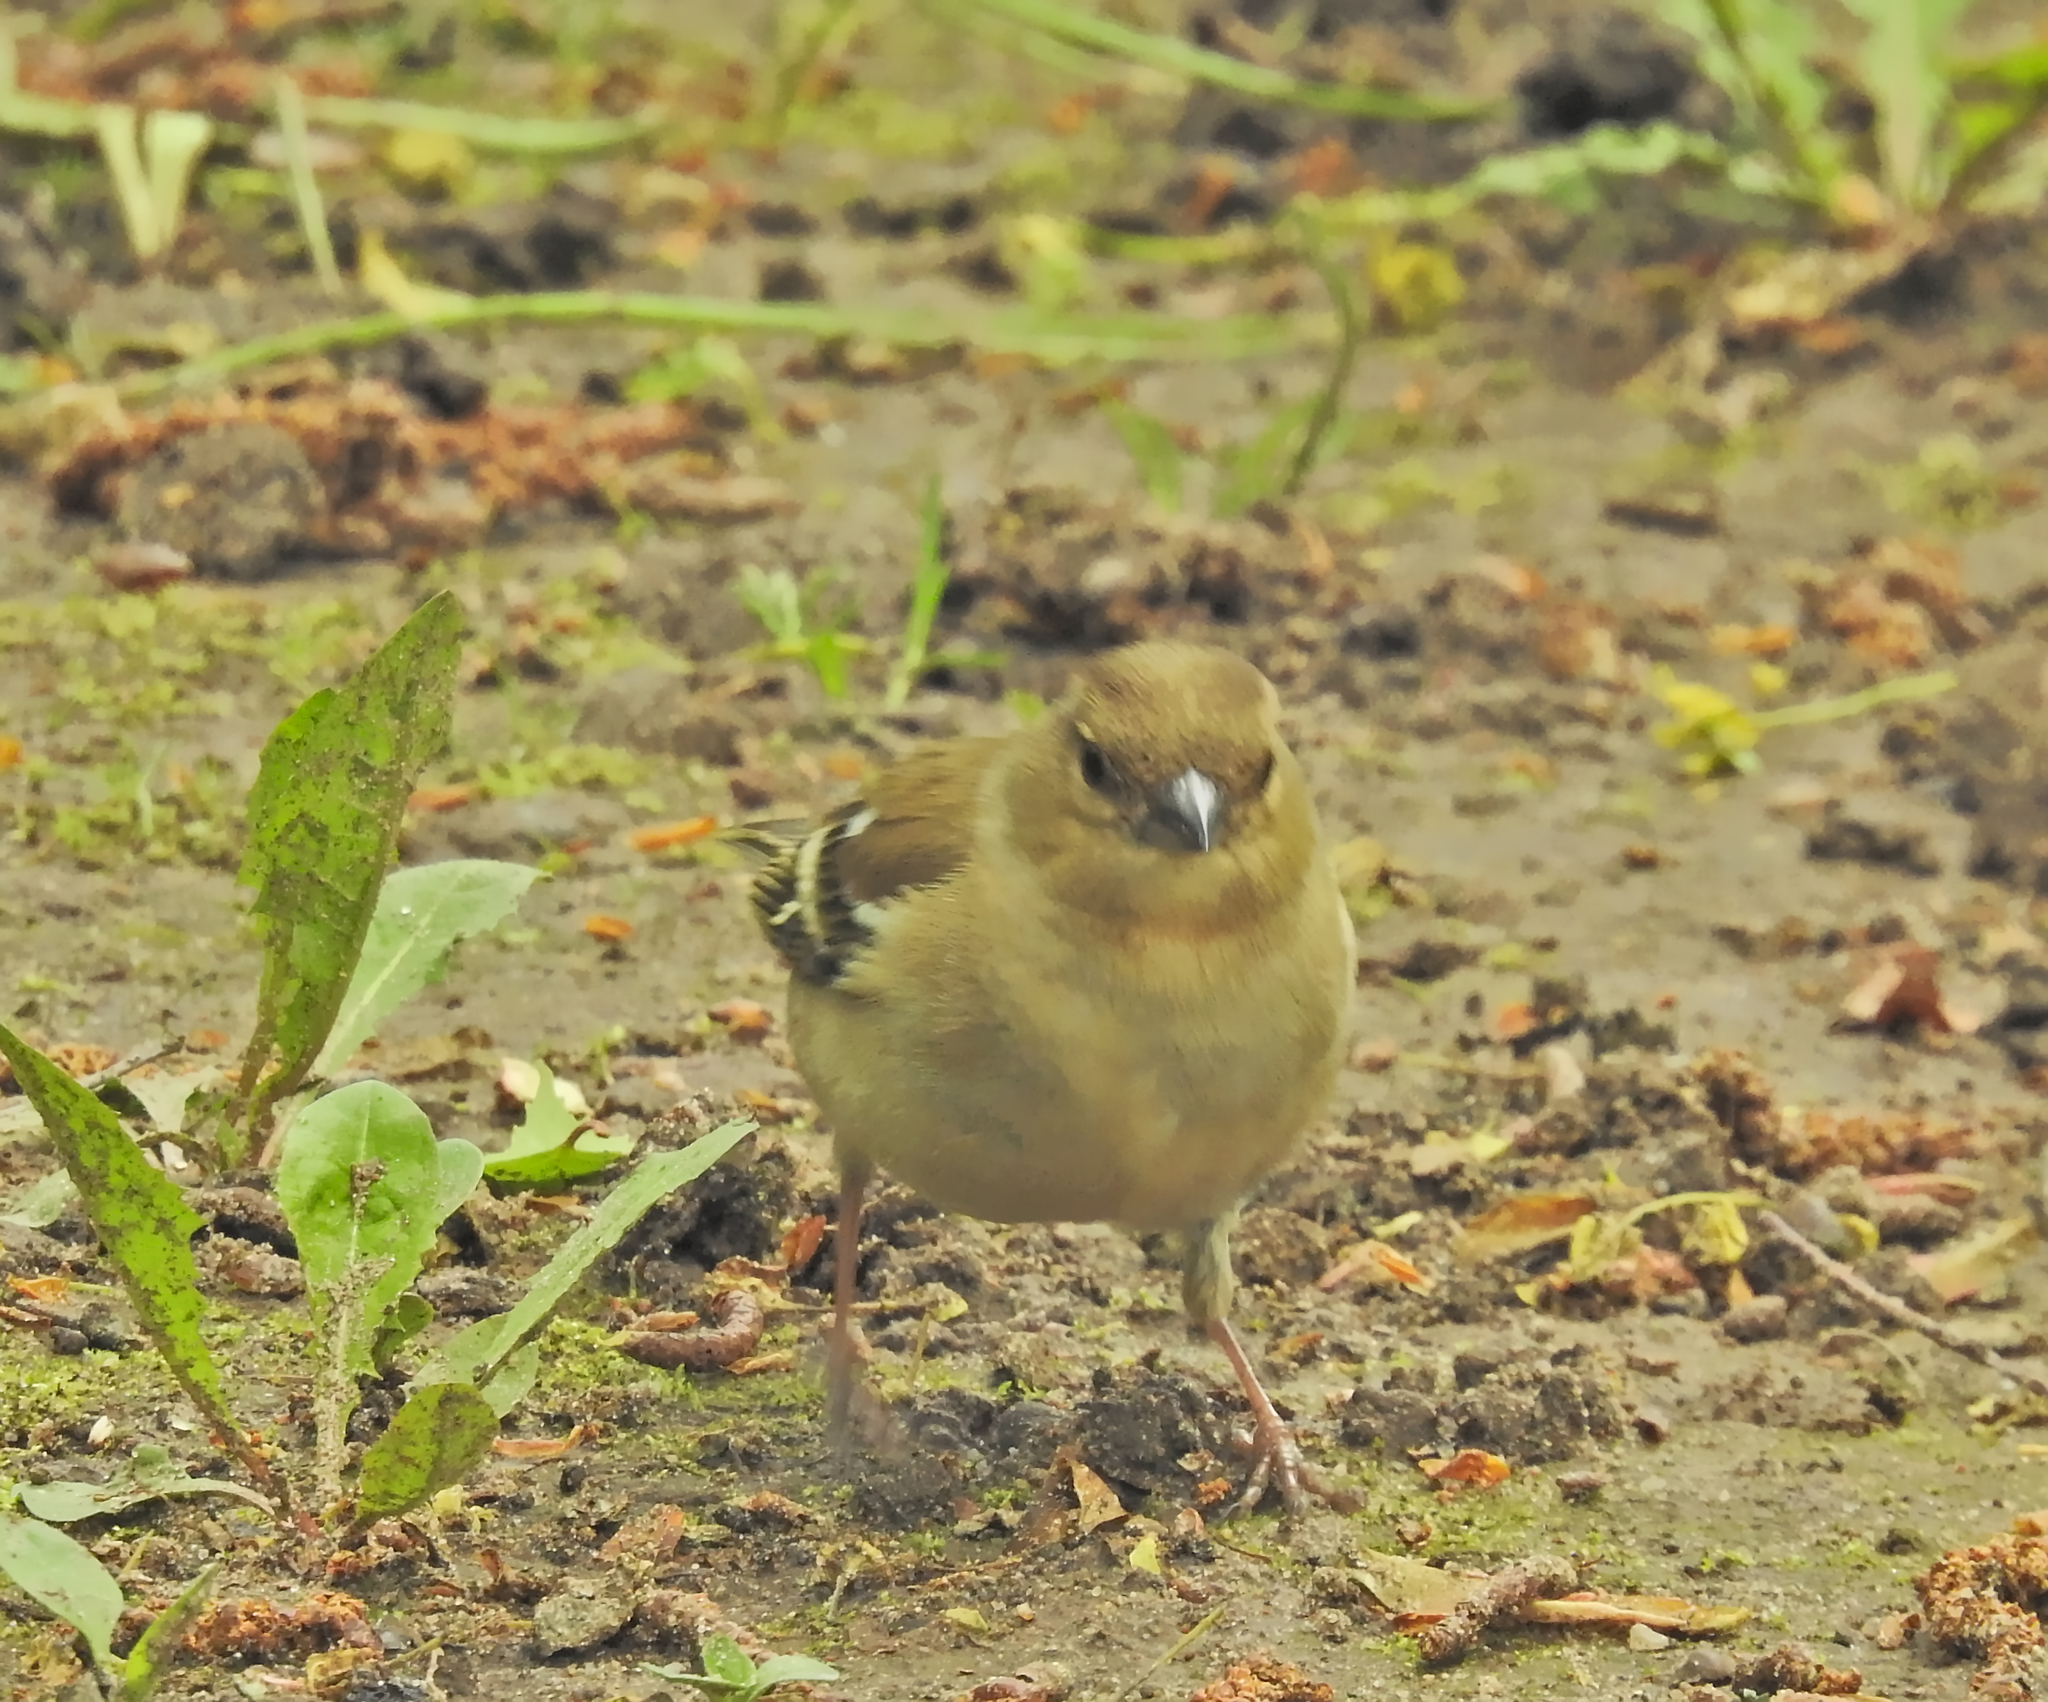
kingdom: Animalia
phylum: Chordata
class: Aves
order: Passeriformes
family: Fringillidae
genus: Fringilla
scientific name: Fringilla coelebs
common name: Common chaffinch
